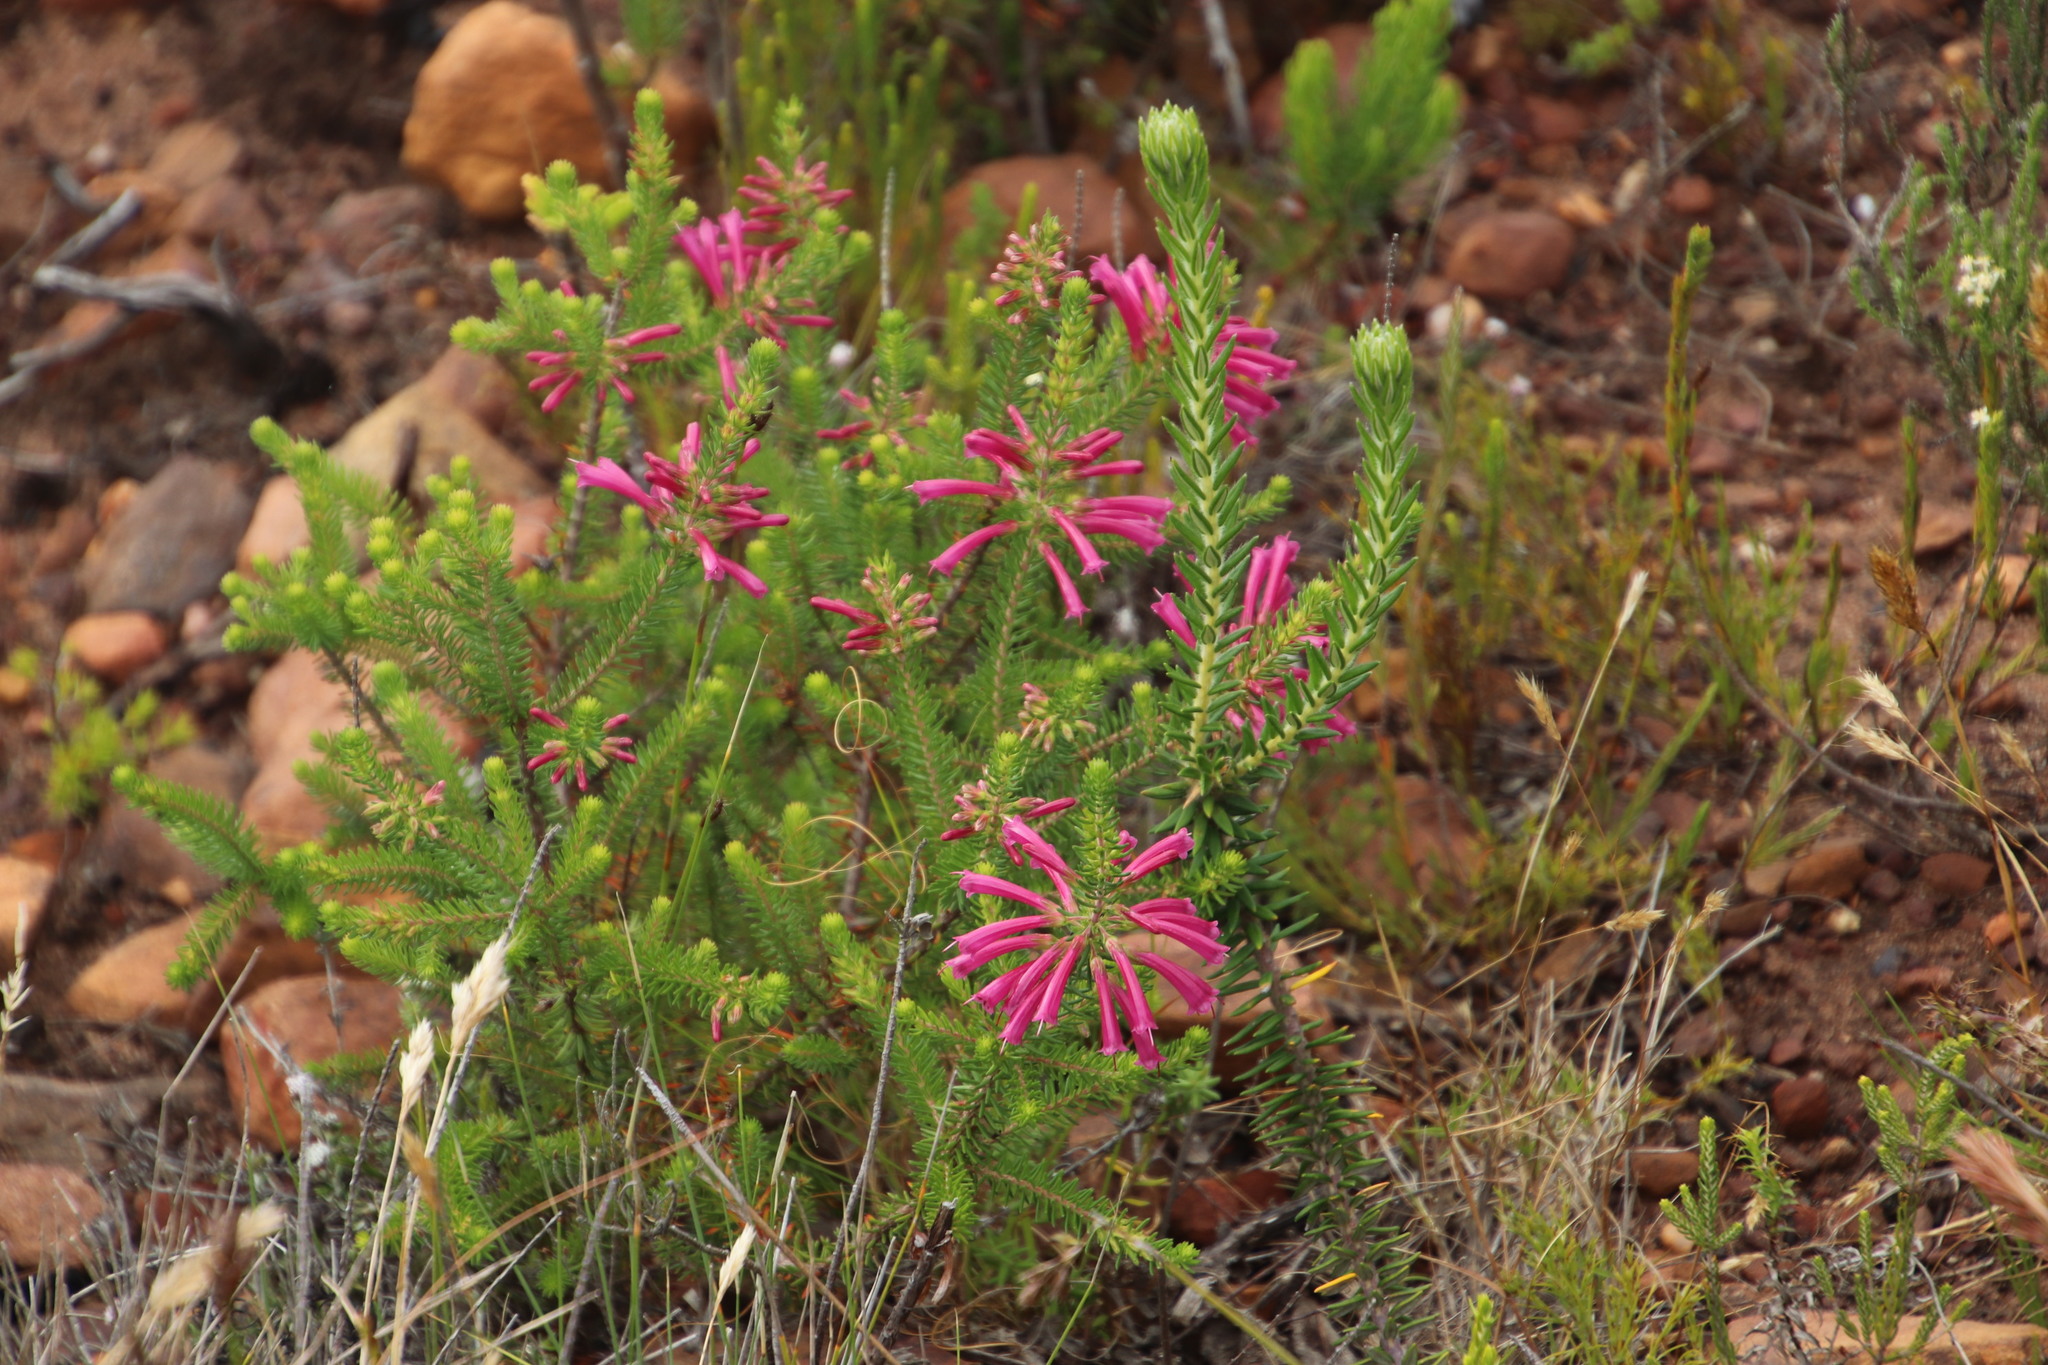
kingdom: Plantae
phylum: Tracheophyta
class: Magnoliopsida
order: Ericales
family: Ericaceae
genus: Erica
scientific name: Erica abietina
